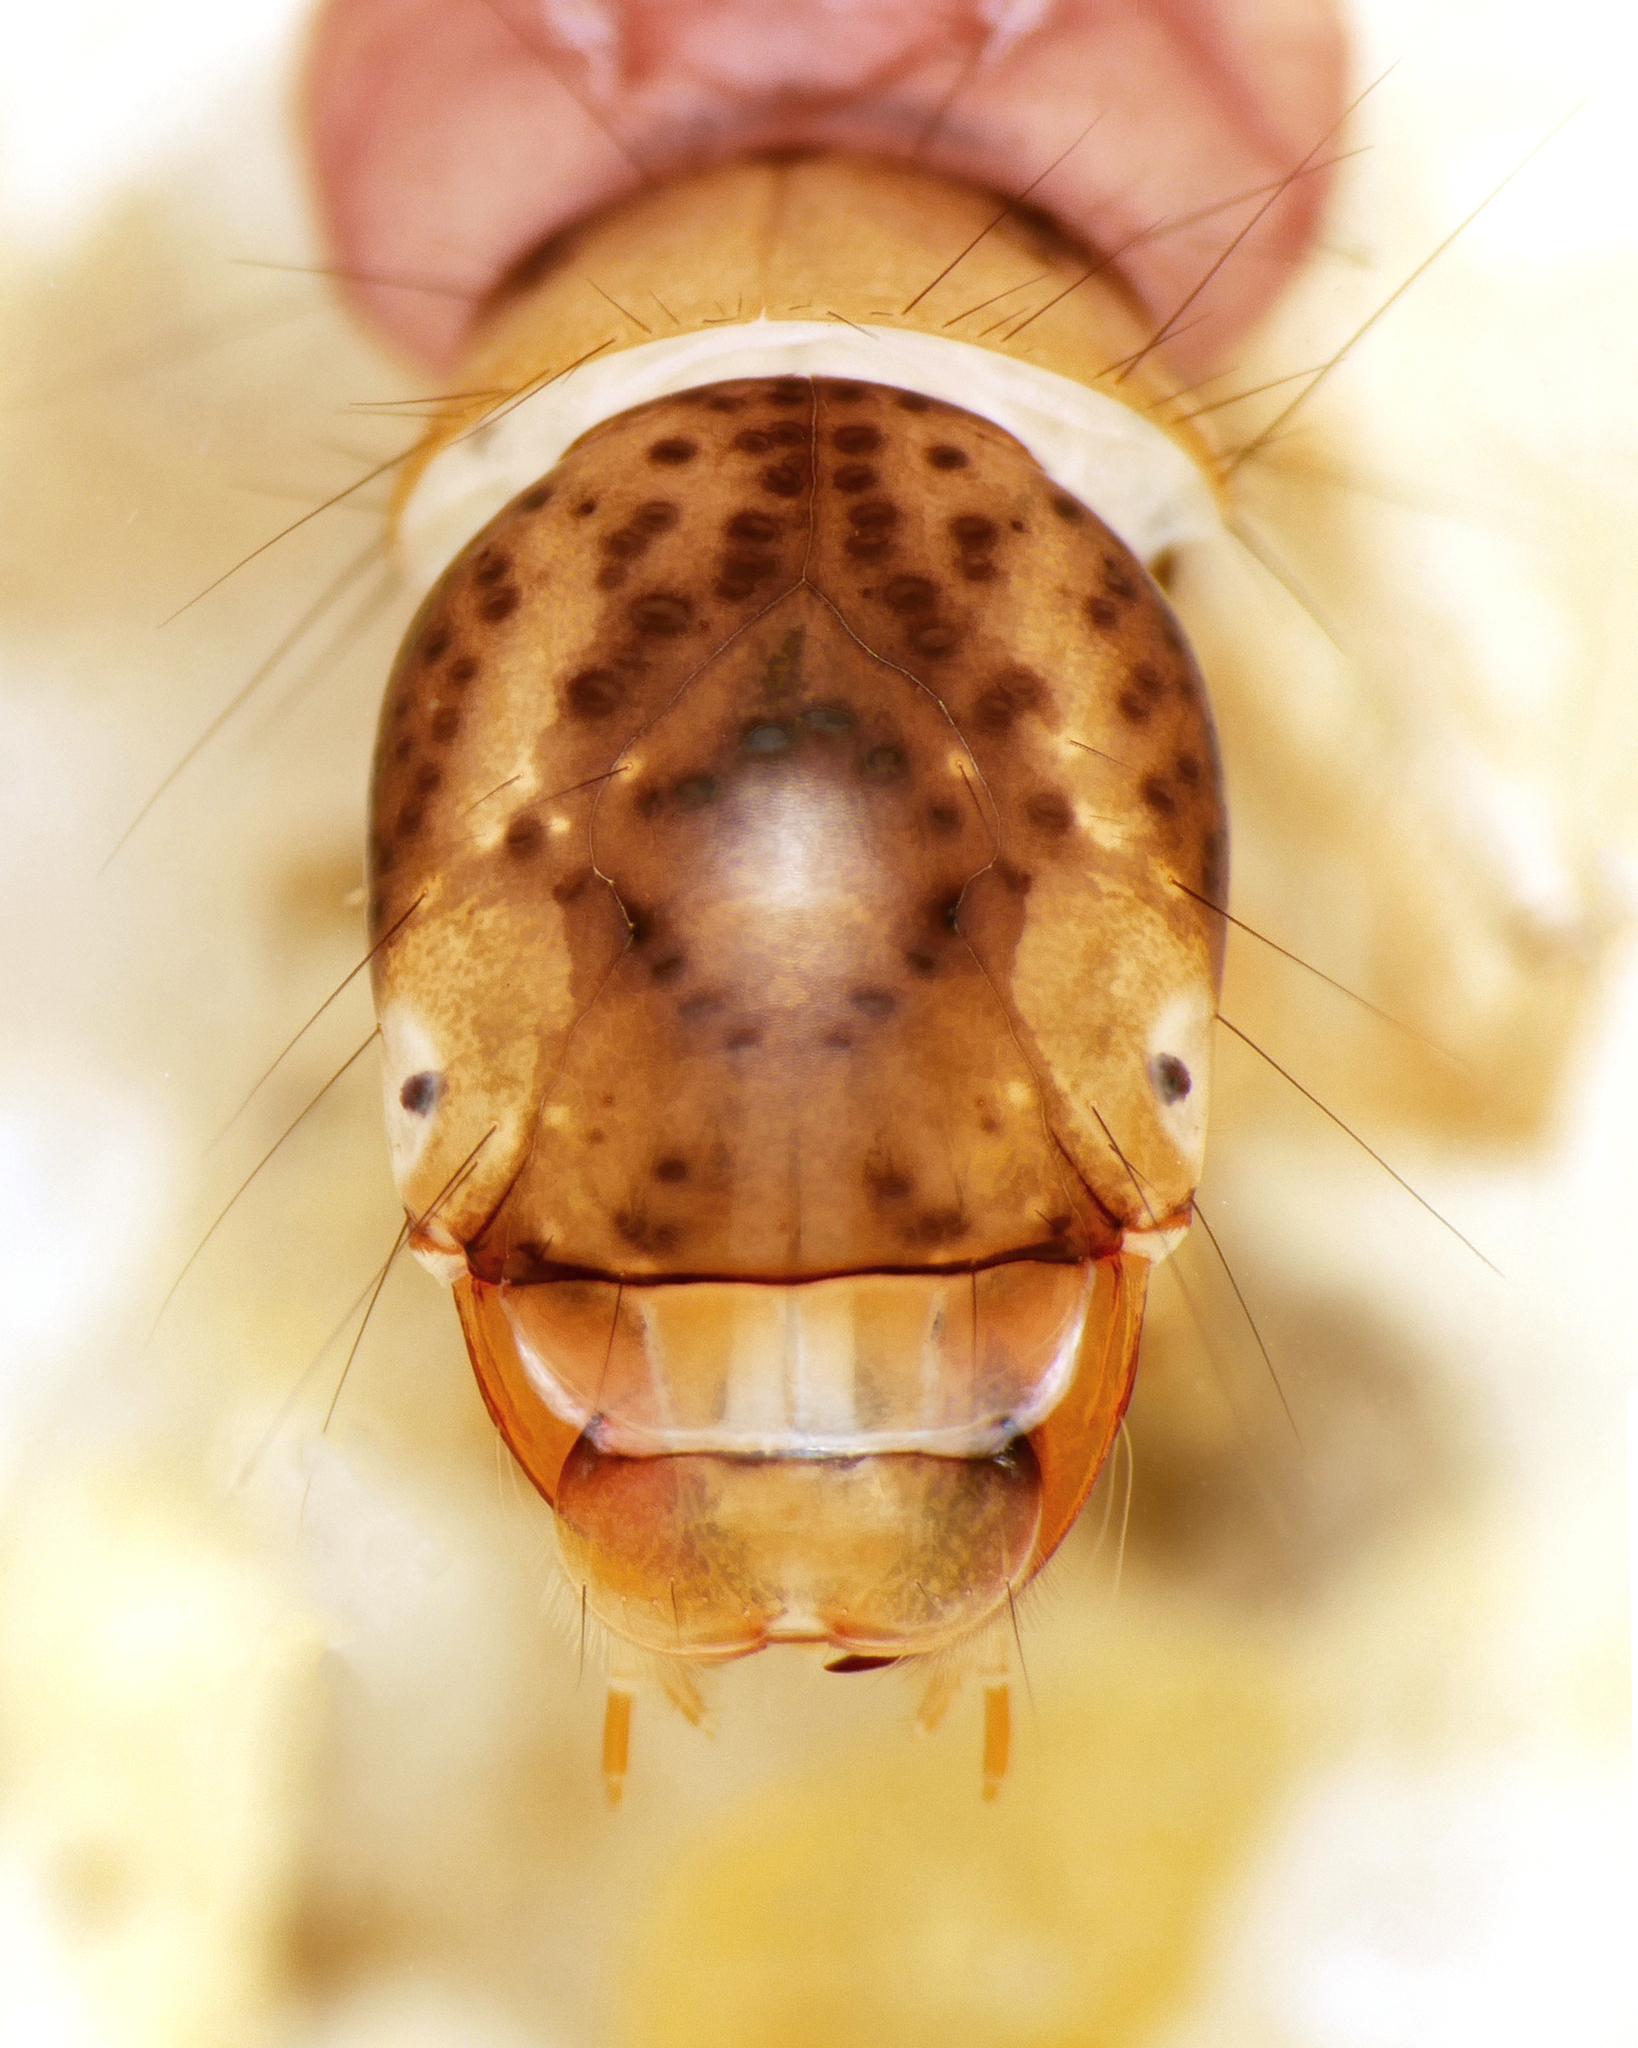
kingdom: Animalia
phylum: Arthropoda
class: Insecta
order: Trichoptera
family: Polycentropodidae
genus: Plectrocnemia
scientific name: Plectrocnemia conspersa
